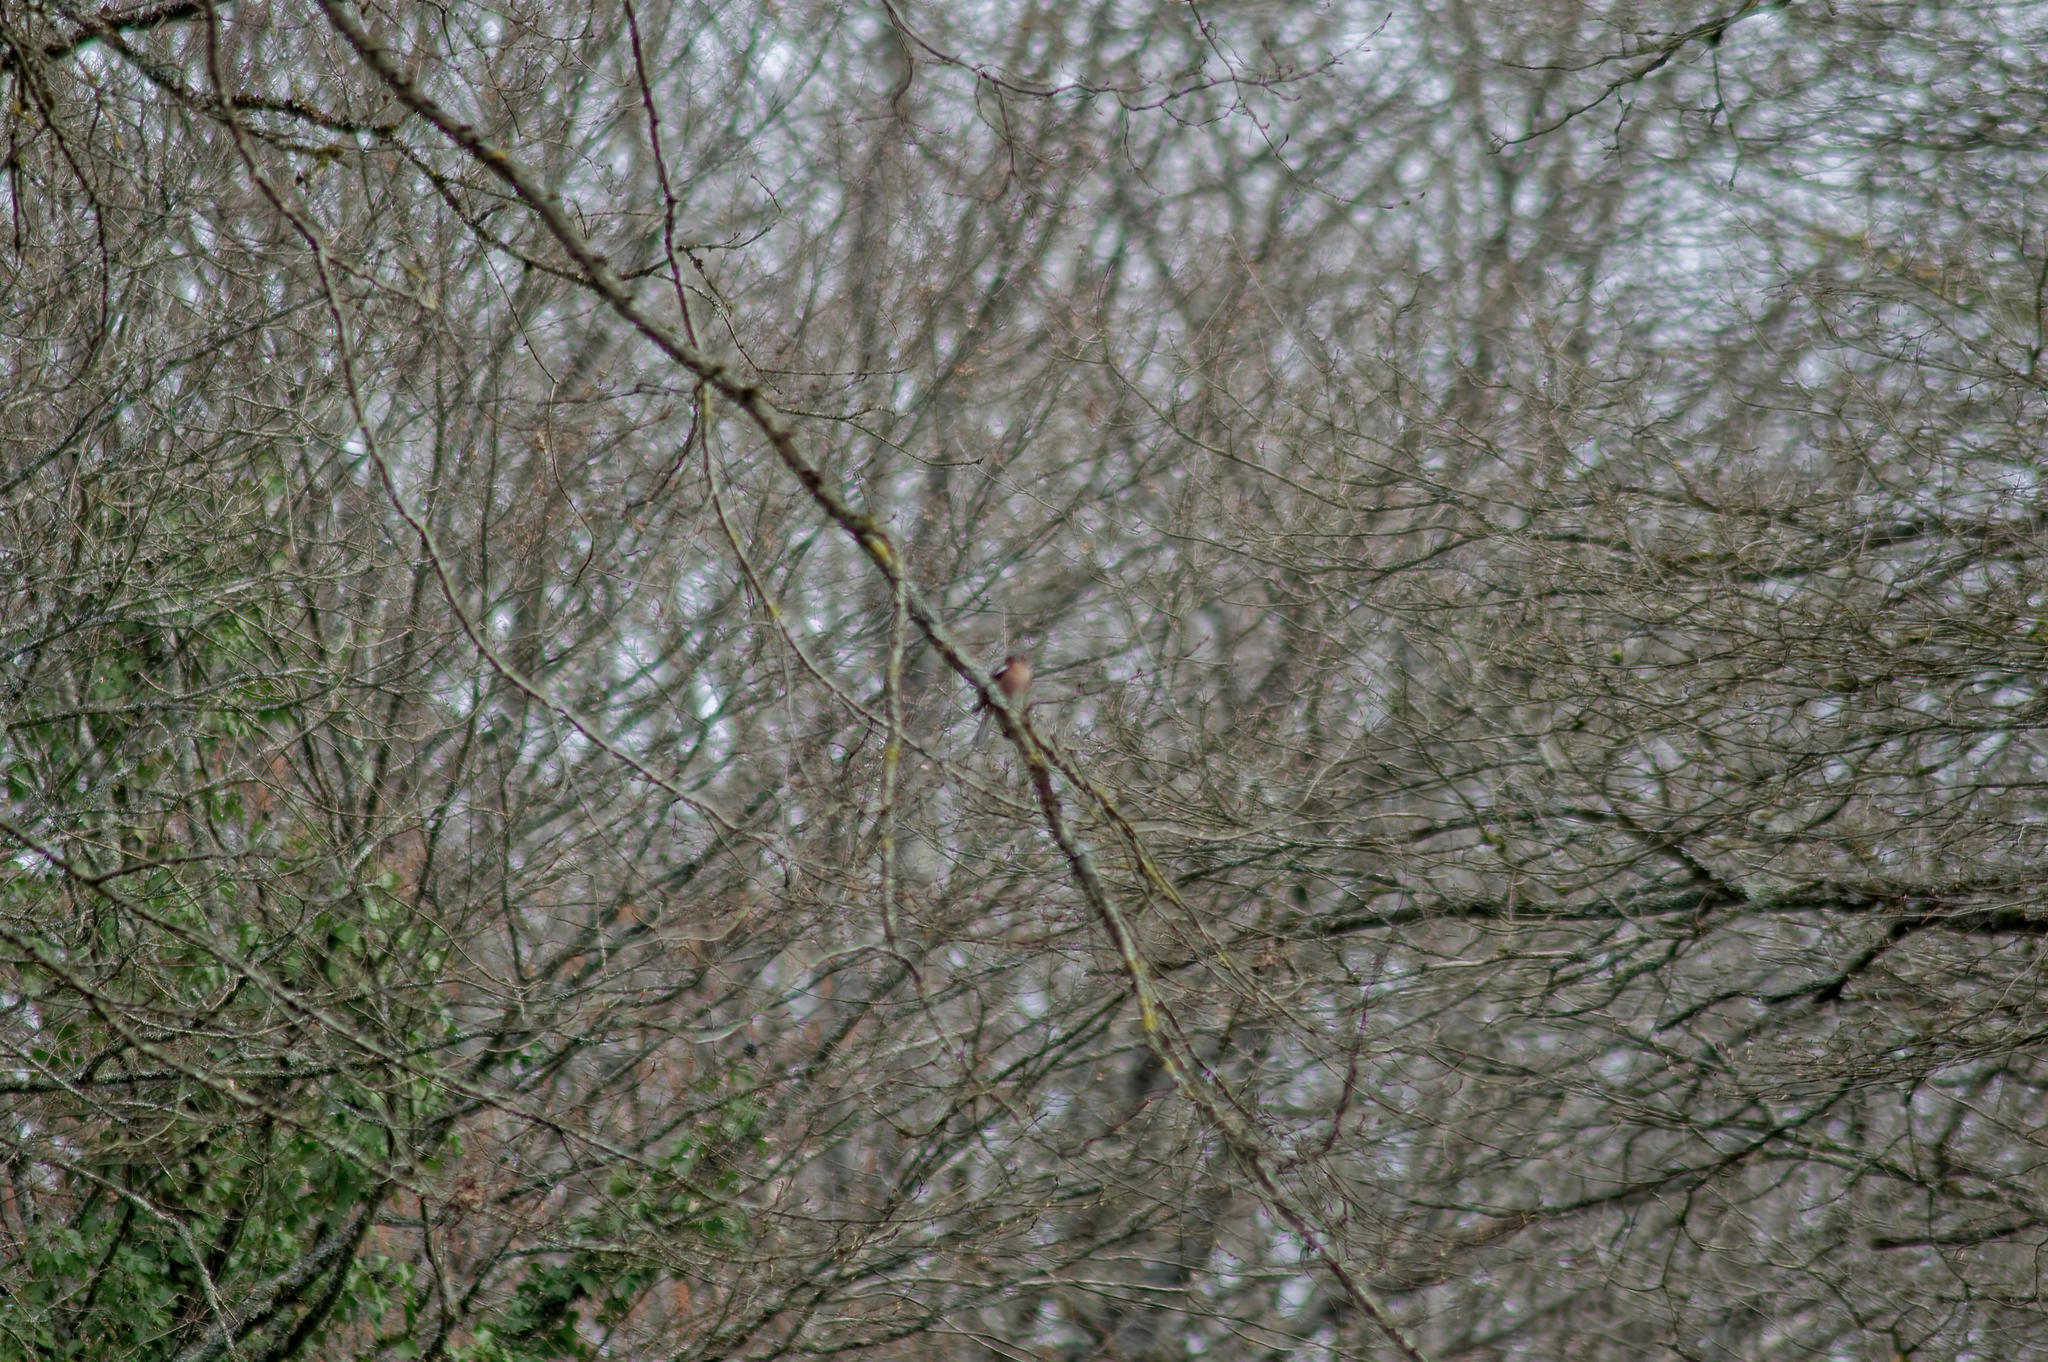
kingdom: Animalia
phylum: Chordata
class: Aves
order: Passeriformes
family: Fringillidae
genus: Fringilla
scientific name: Fringilla coelebs
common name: Common chaffinch
